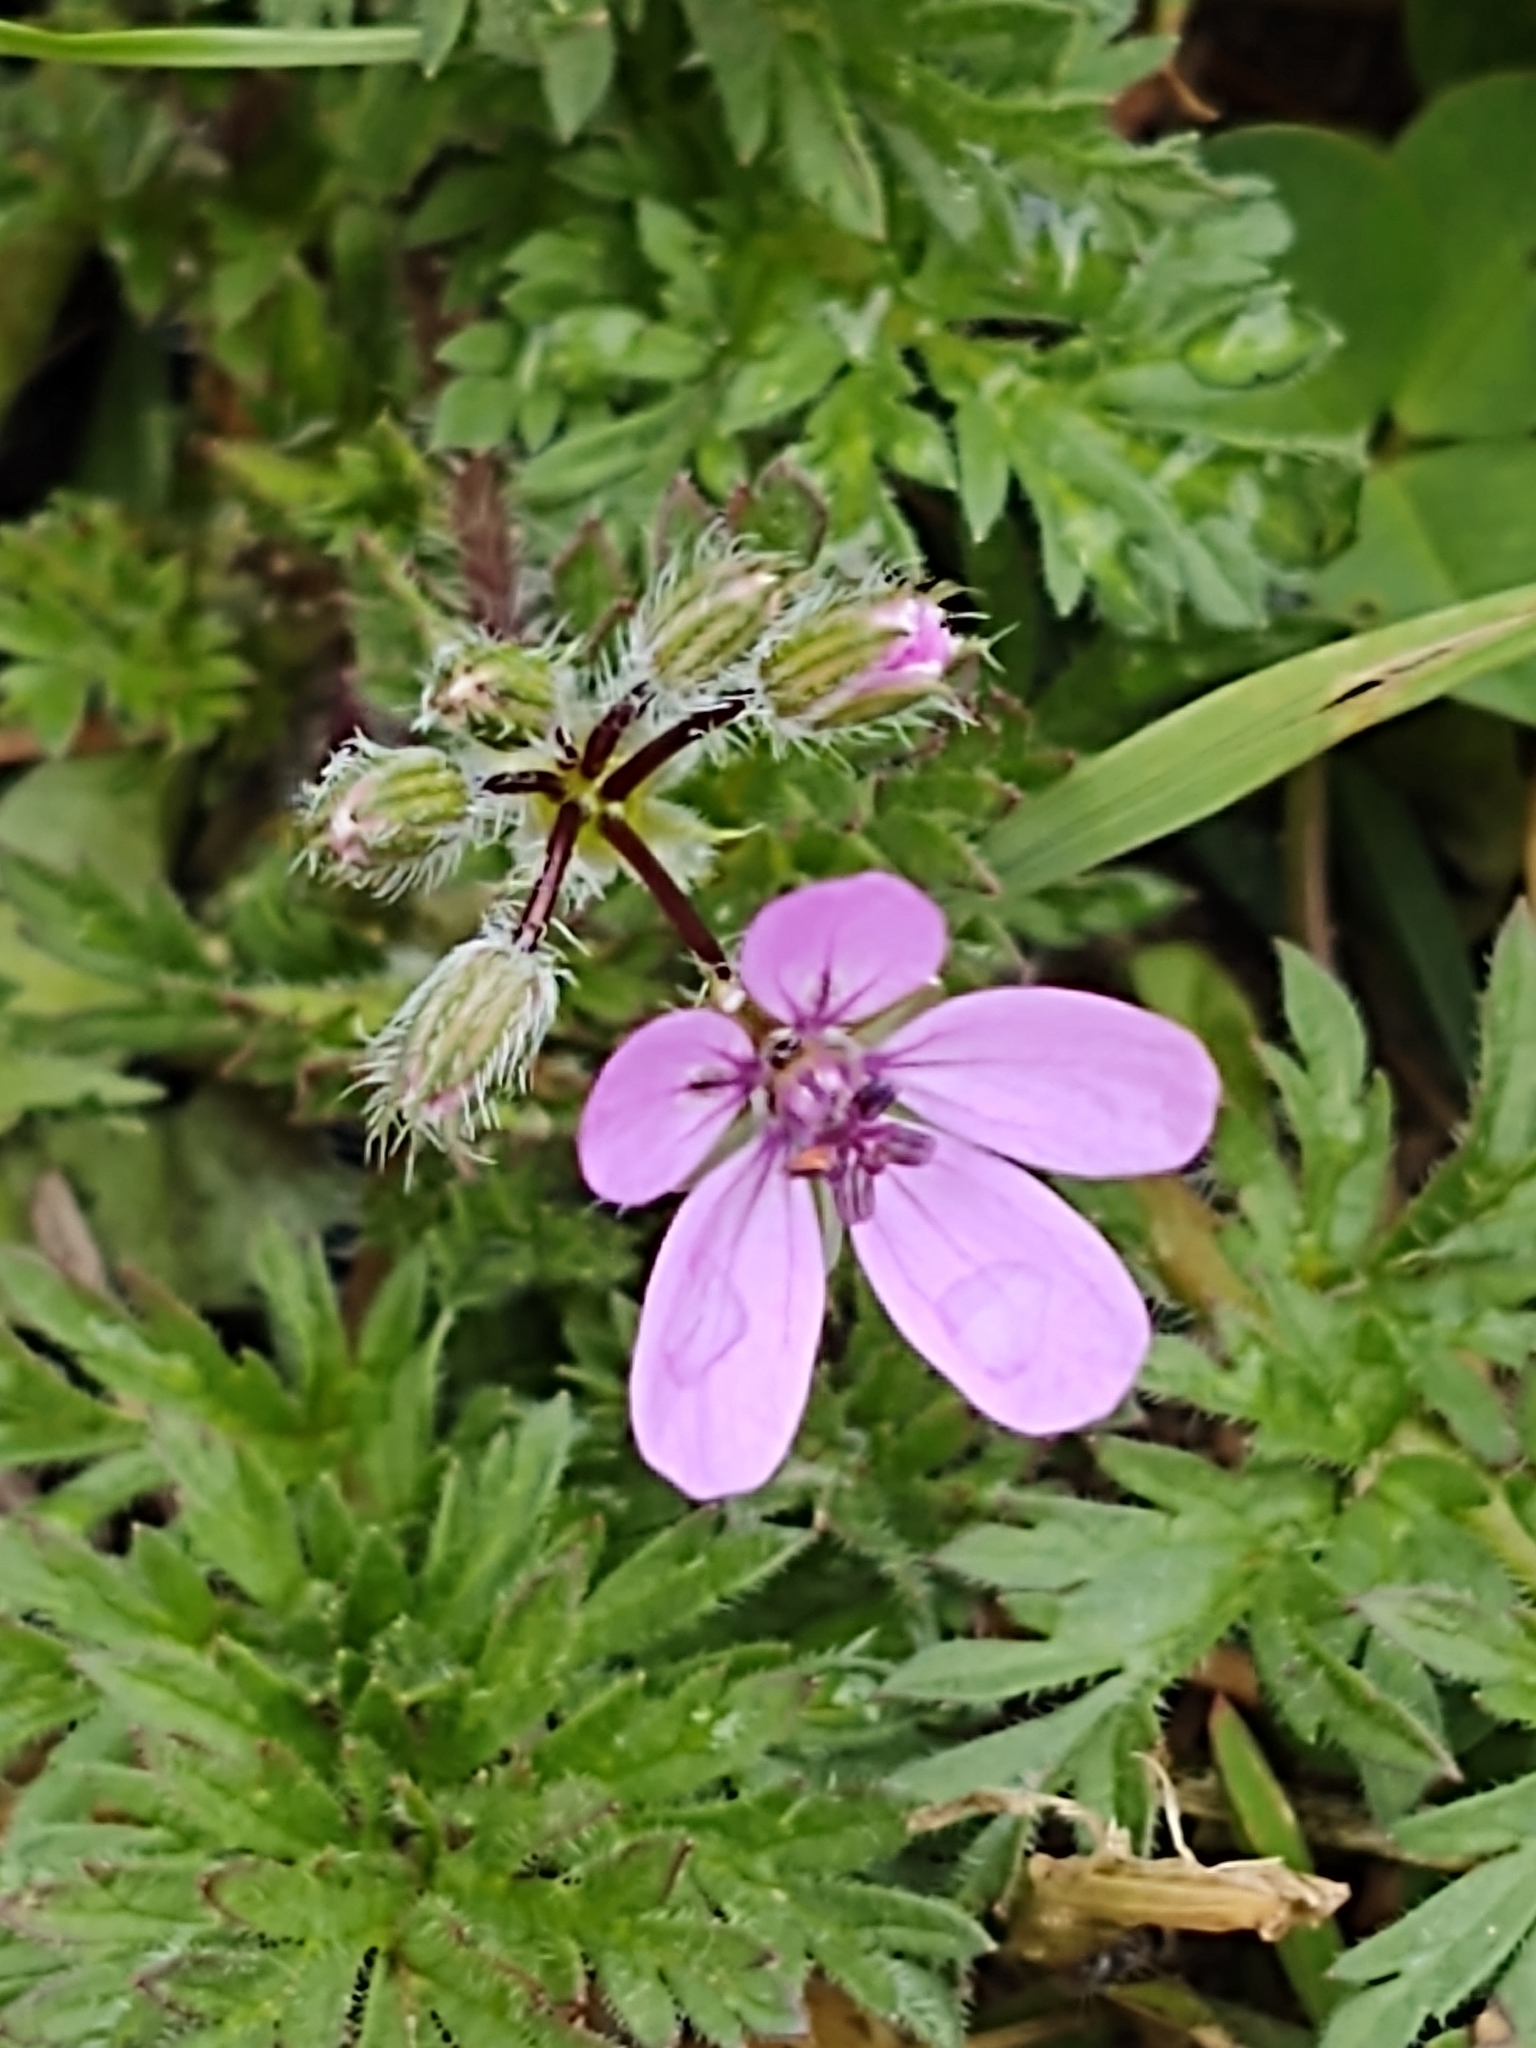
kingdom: Plantae
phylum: Tracheophyta
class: Magnoliopsida
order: Geraniales
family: Geraniaceae
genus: Erodium
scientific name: Erodium cicutarium
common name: Common stork's-bill
